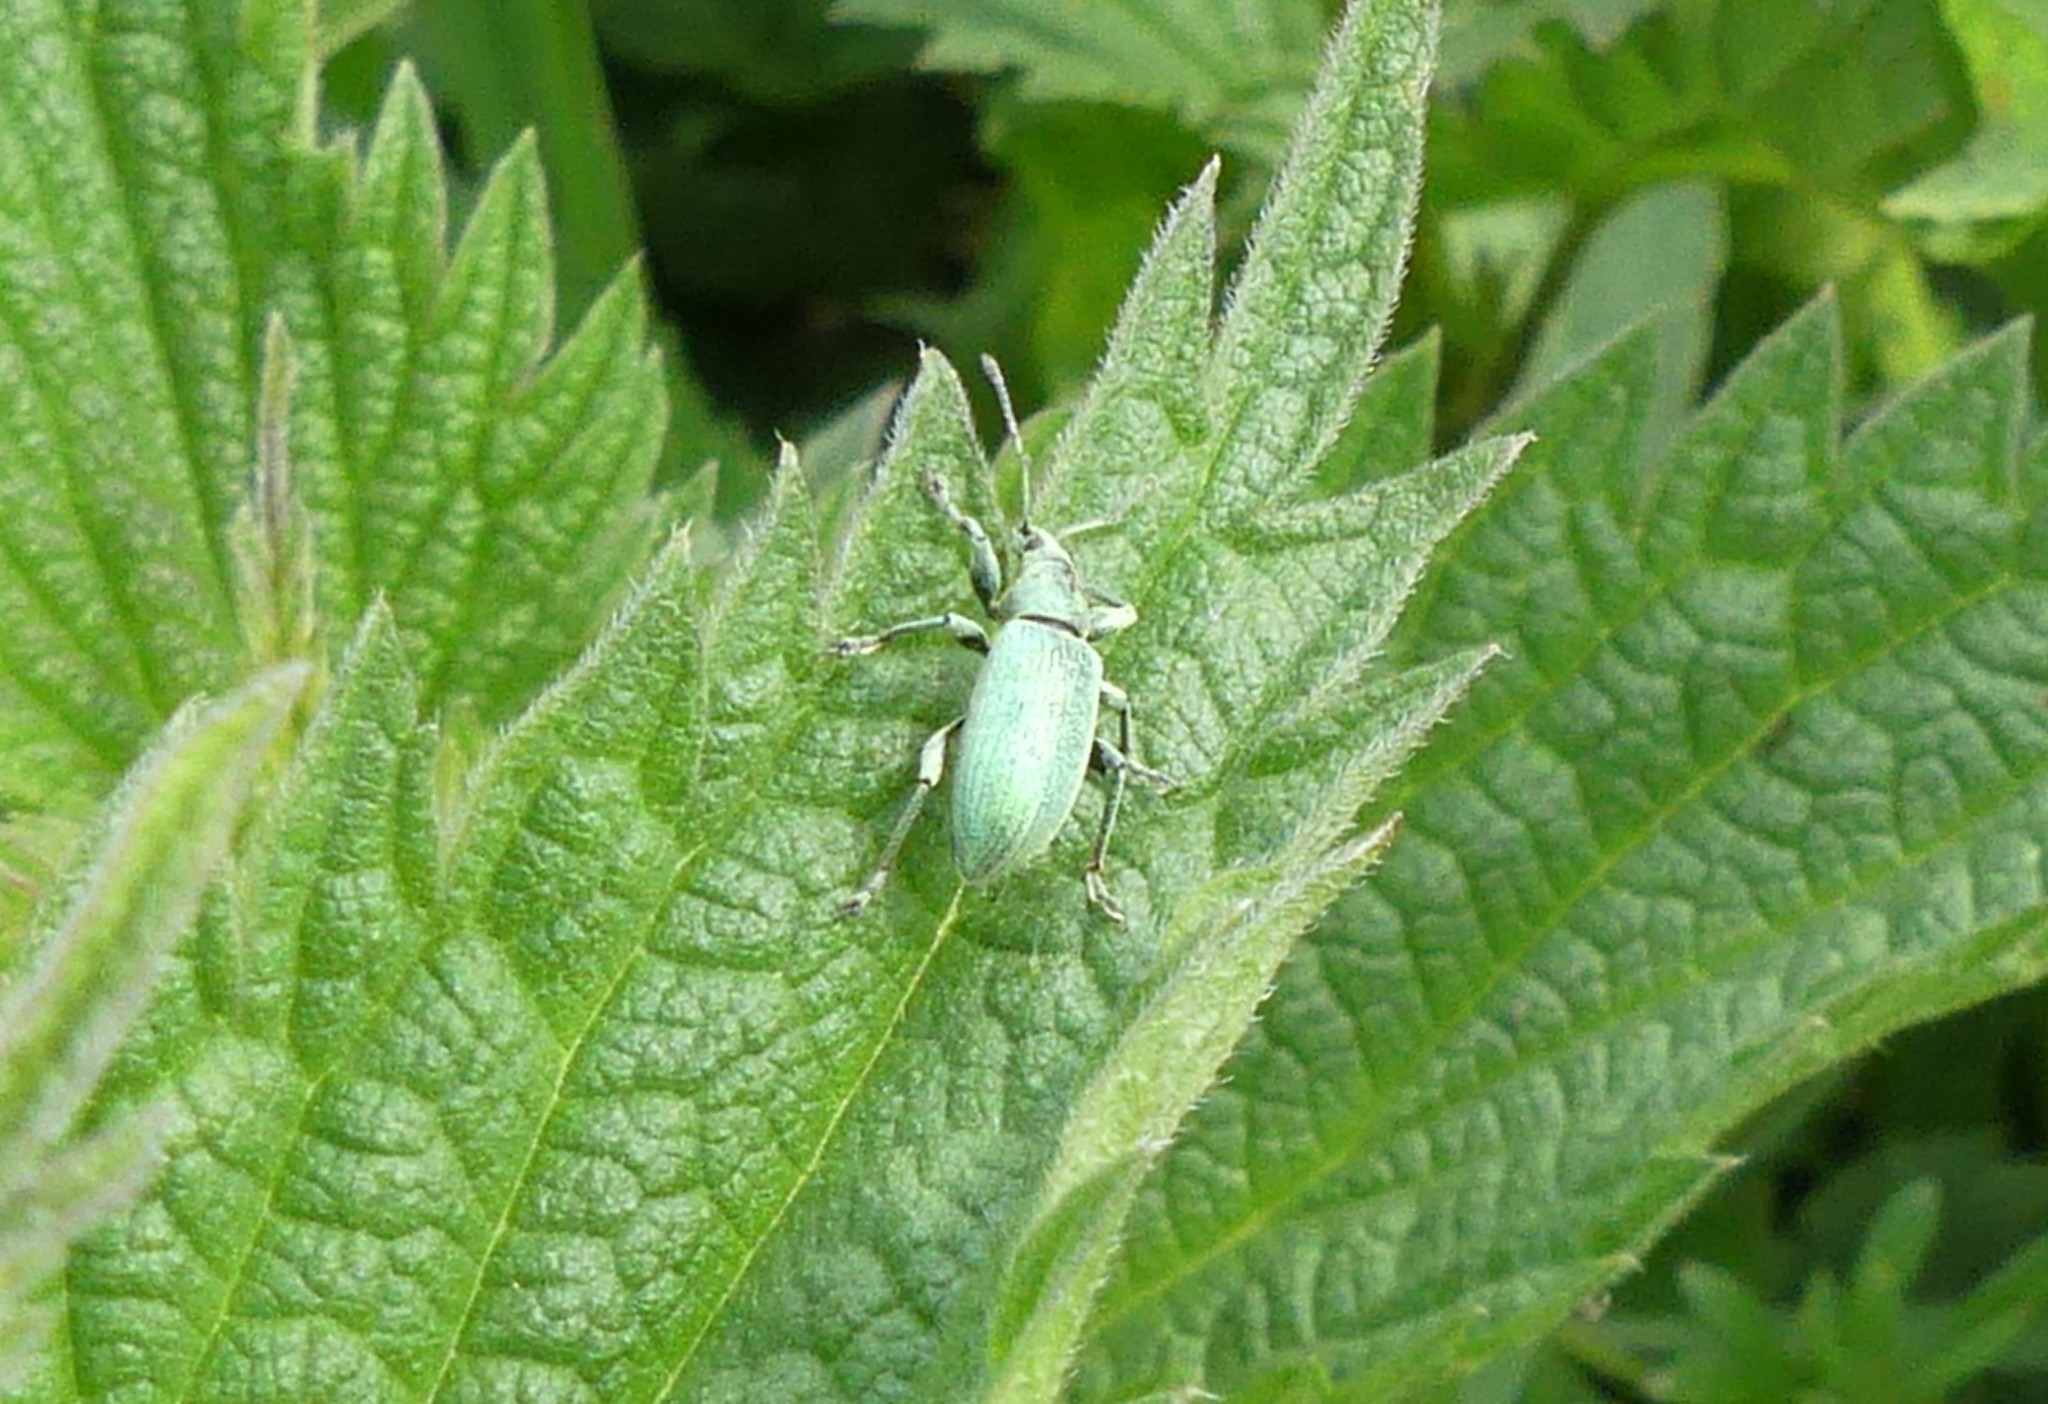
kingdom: Animalia
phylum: Arthropoda
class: Insecta
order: Coleoptera
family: Curculionidae
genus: Phyllobius
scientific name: Phyllobius pomaceus
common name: Green nettle weevil
